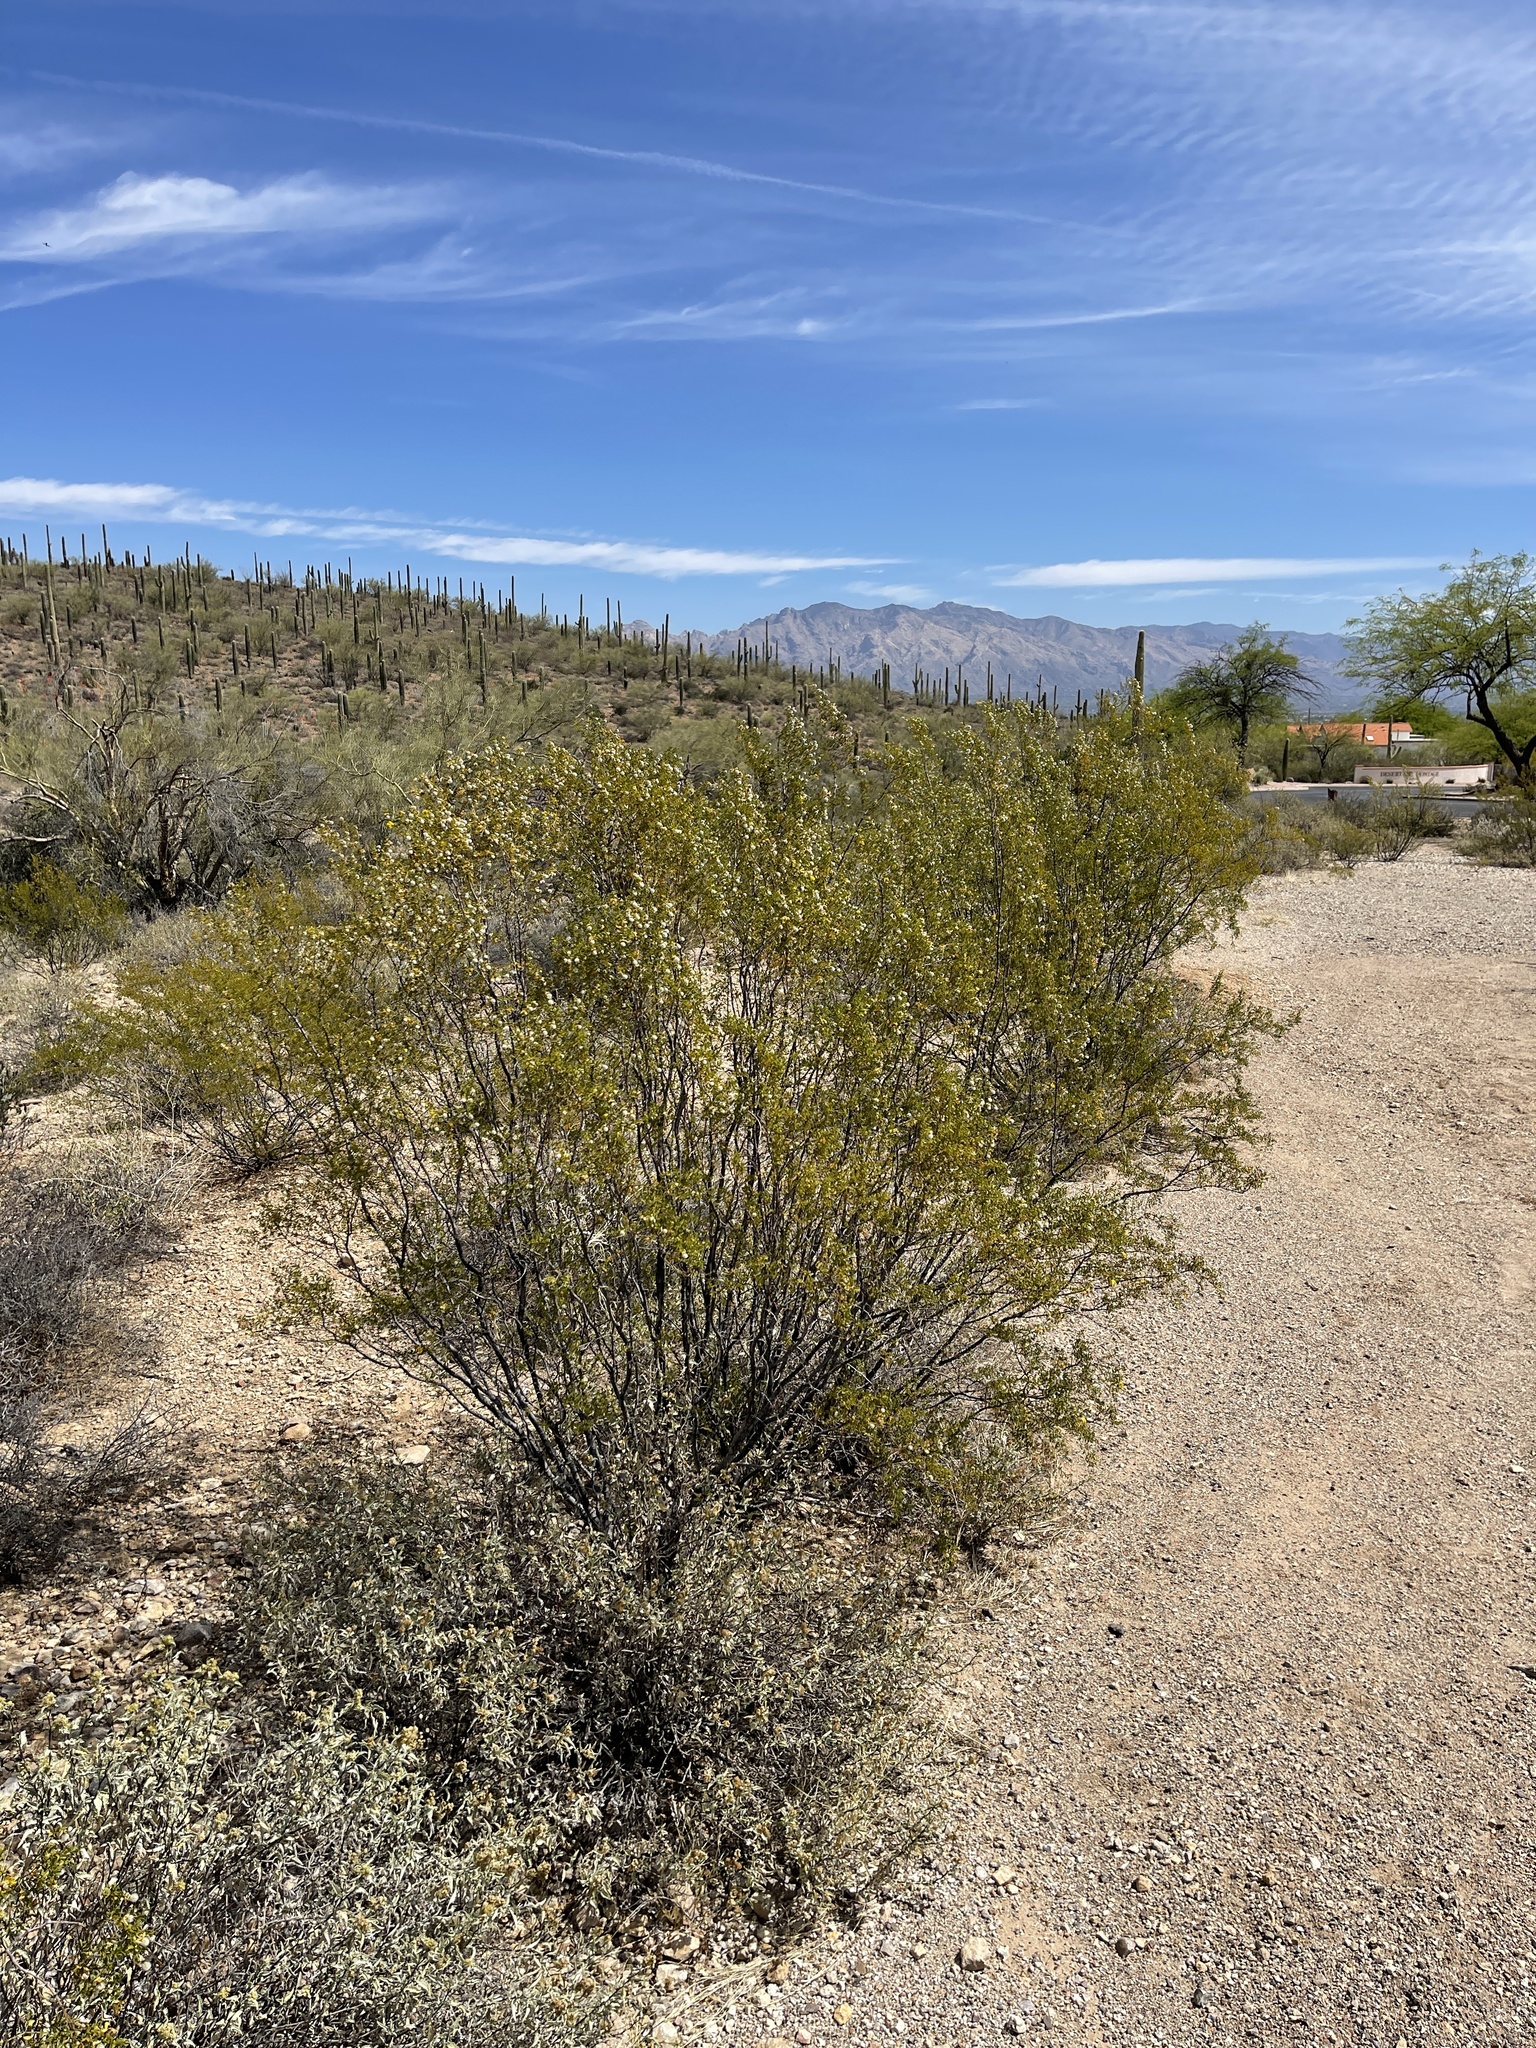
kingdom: Plantae
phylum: Tracheophyta
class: Magnoliopsida
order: Zygophyllales
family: Zygophyllaceae
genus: Larrea
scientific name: Larrea tridentata
